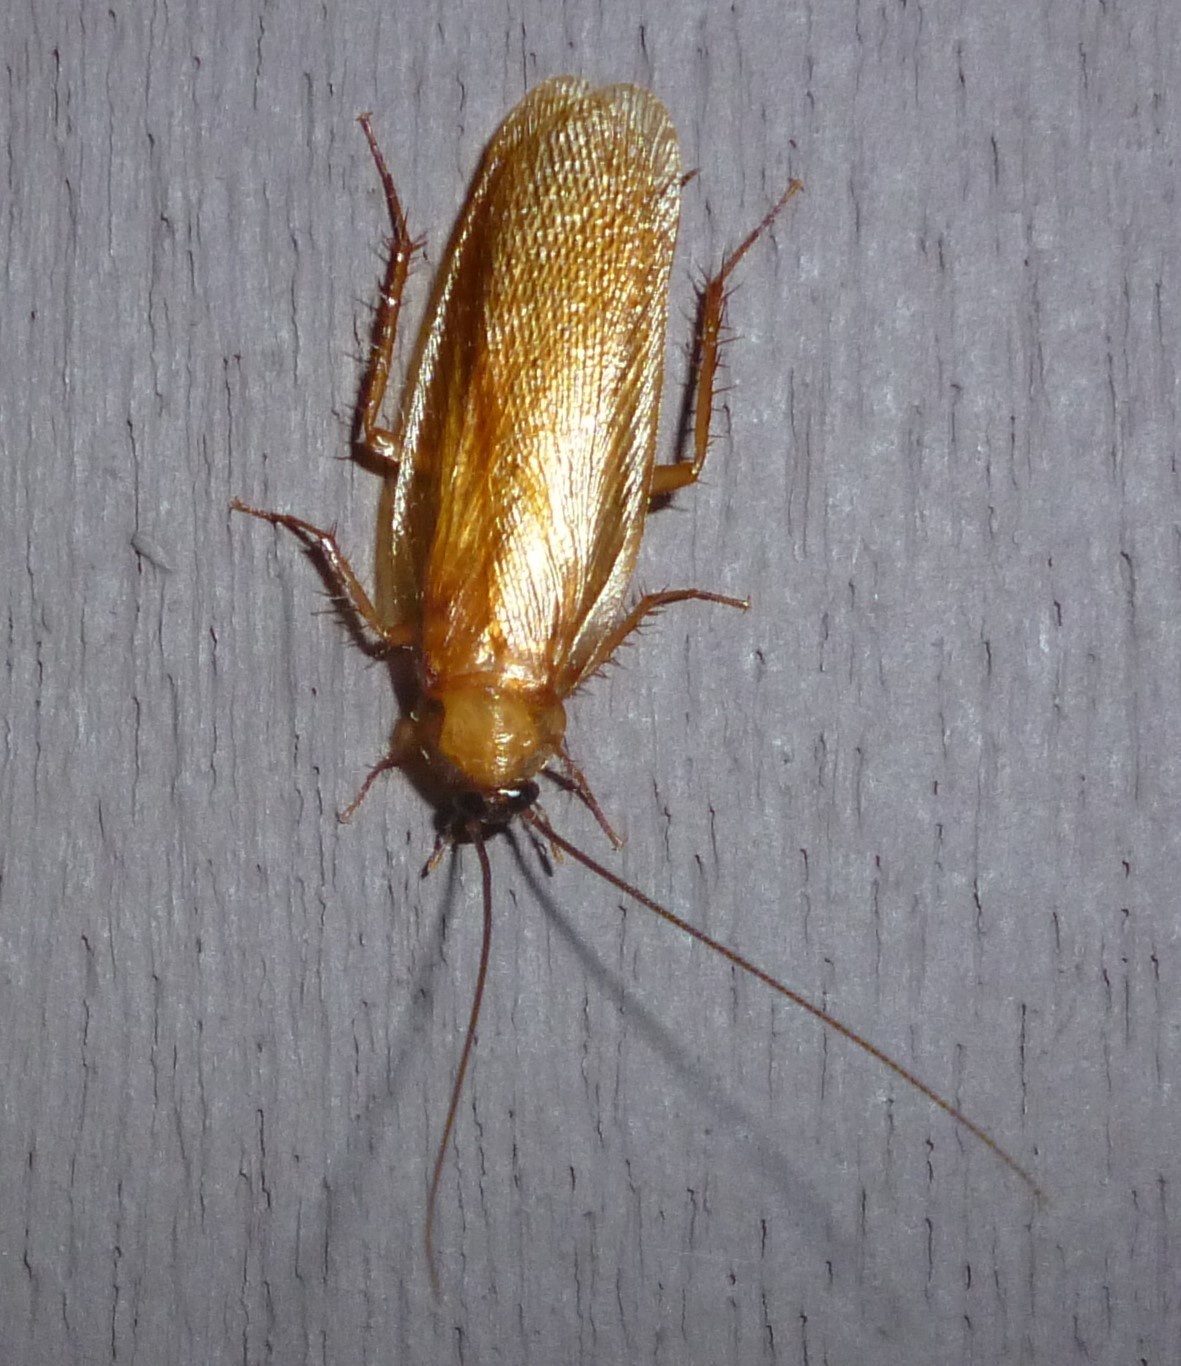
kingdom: Animalia
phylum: Arthropoda
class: Insecta
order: Blattodea
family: Ectobiidae
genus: Parcoblatta
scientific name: Parcoblatta virginica
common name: Virginia wood cockroach
